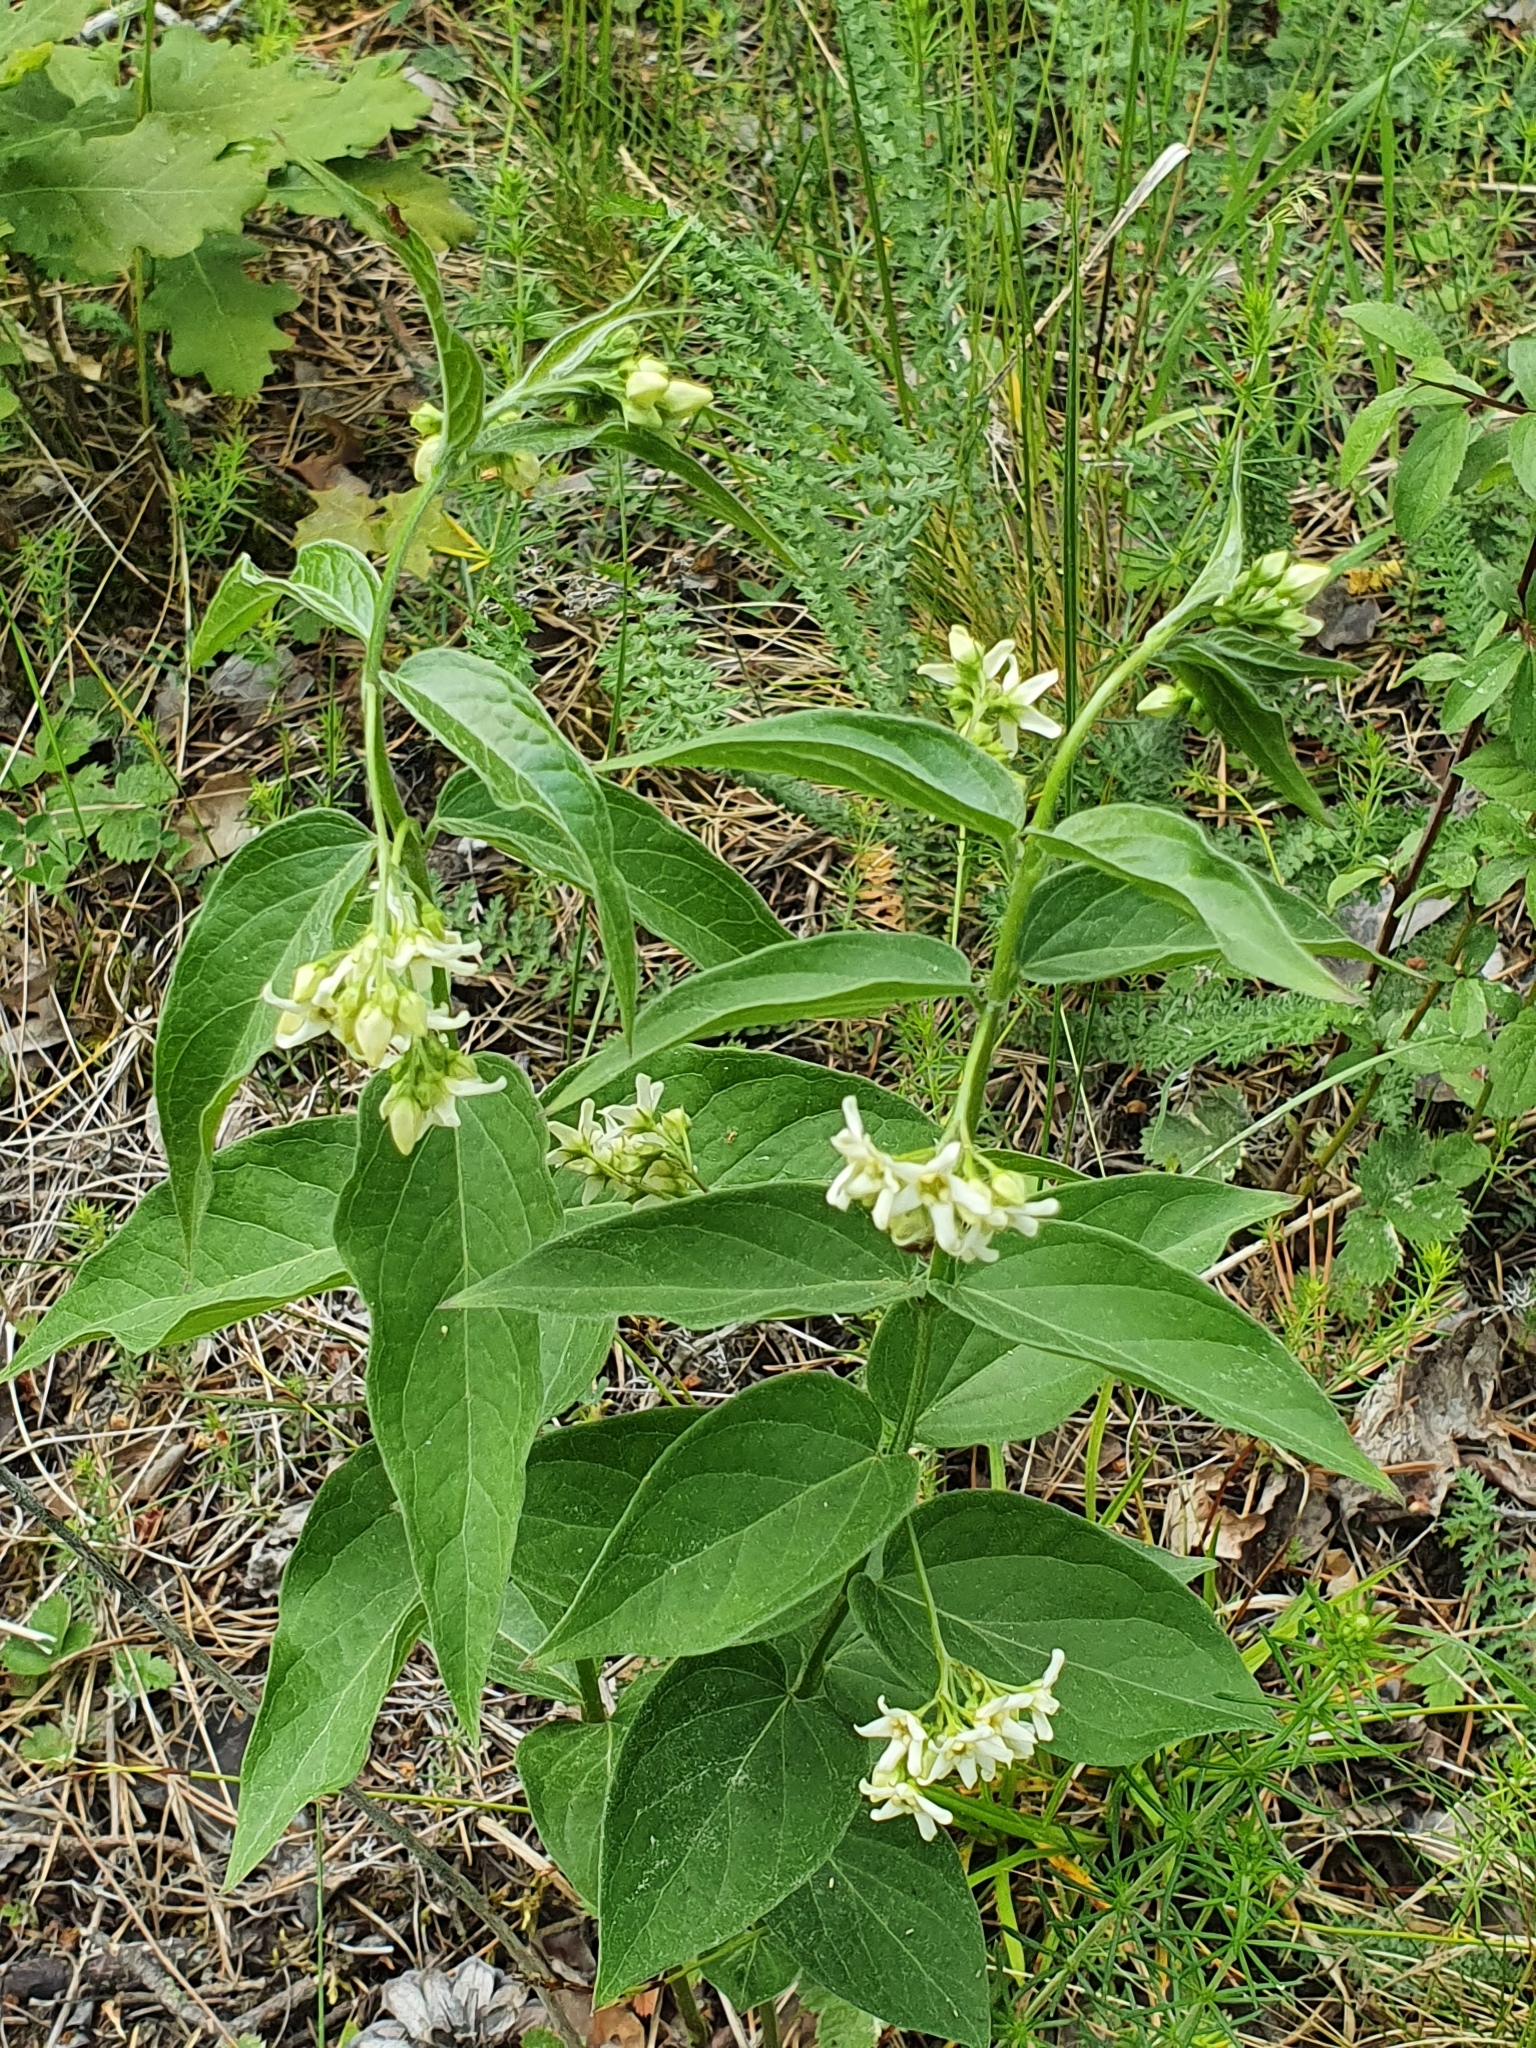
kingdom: Plantae
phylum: Tracheophyta
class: Magnoliopsida
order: Gentianales
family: Apocynaceae
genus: Vincetoxicum
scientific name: Vincetoxicum hirundinaria
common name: White swallowwort
